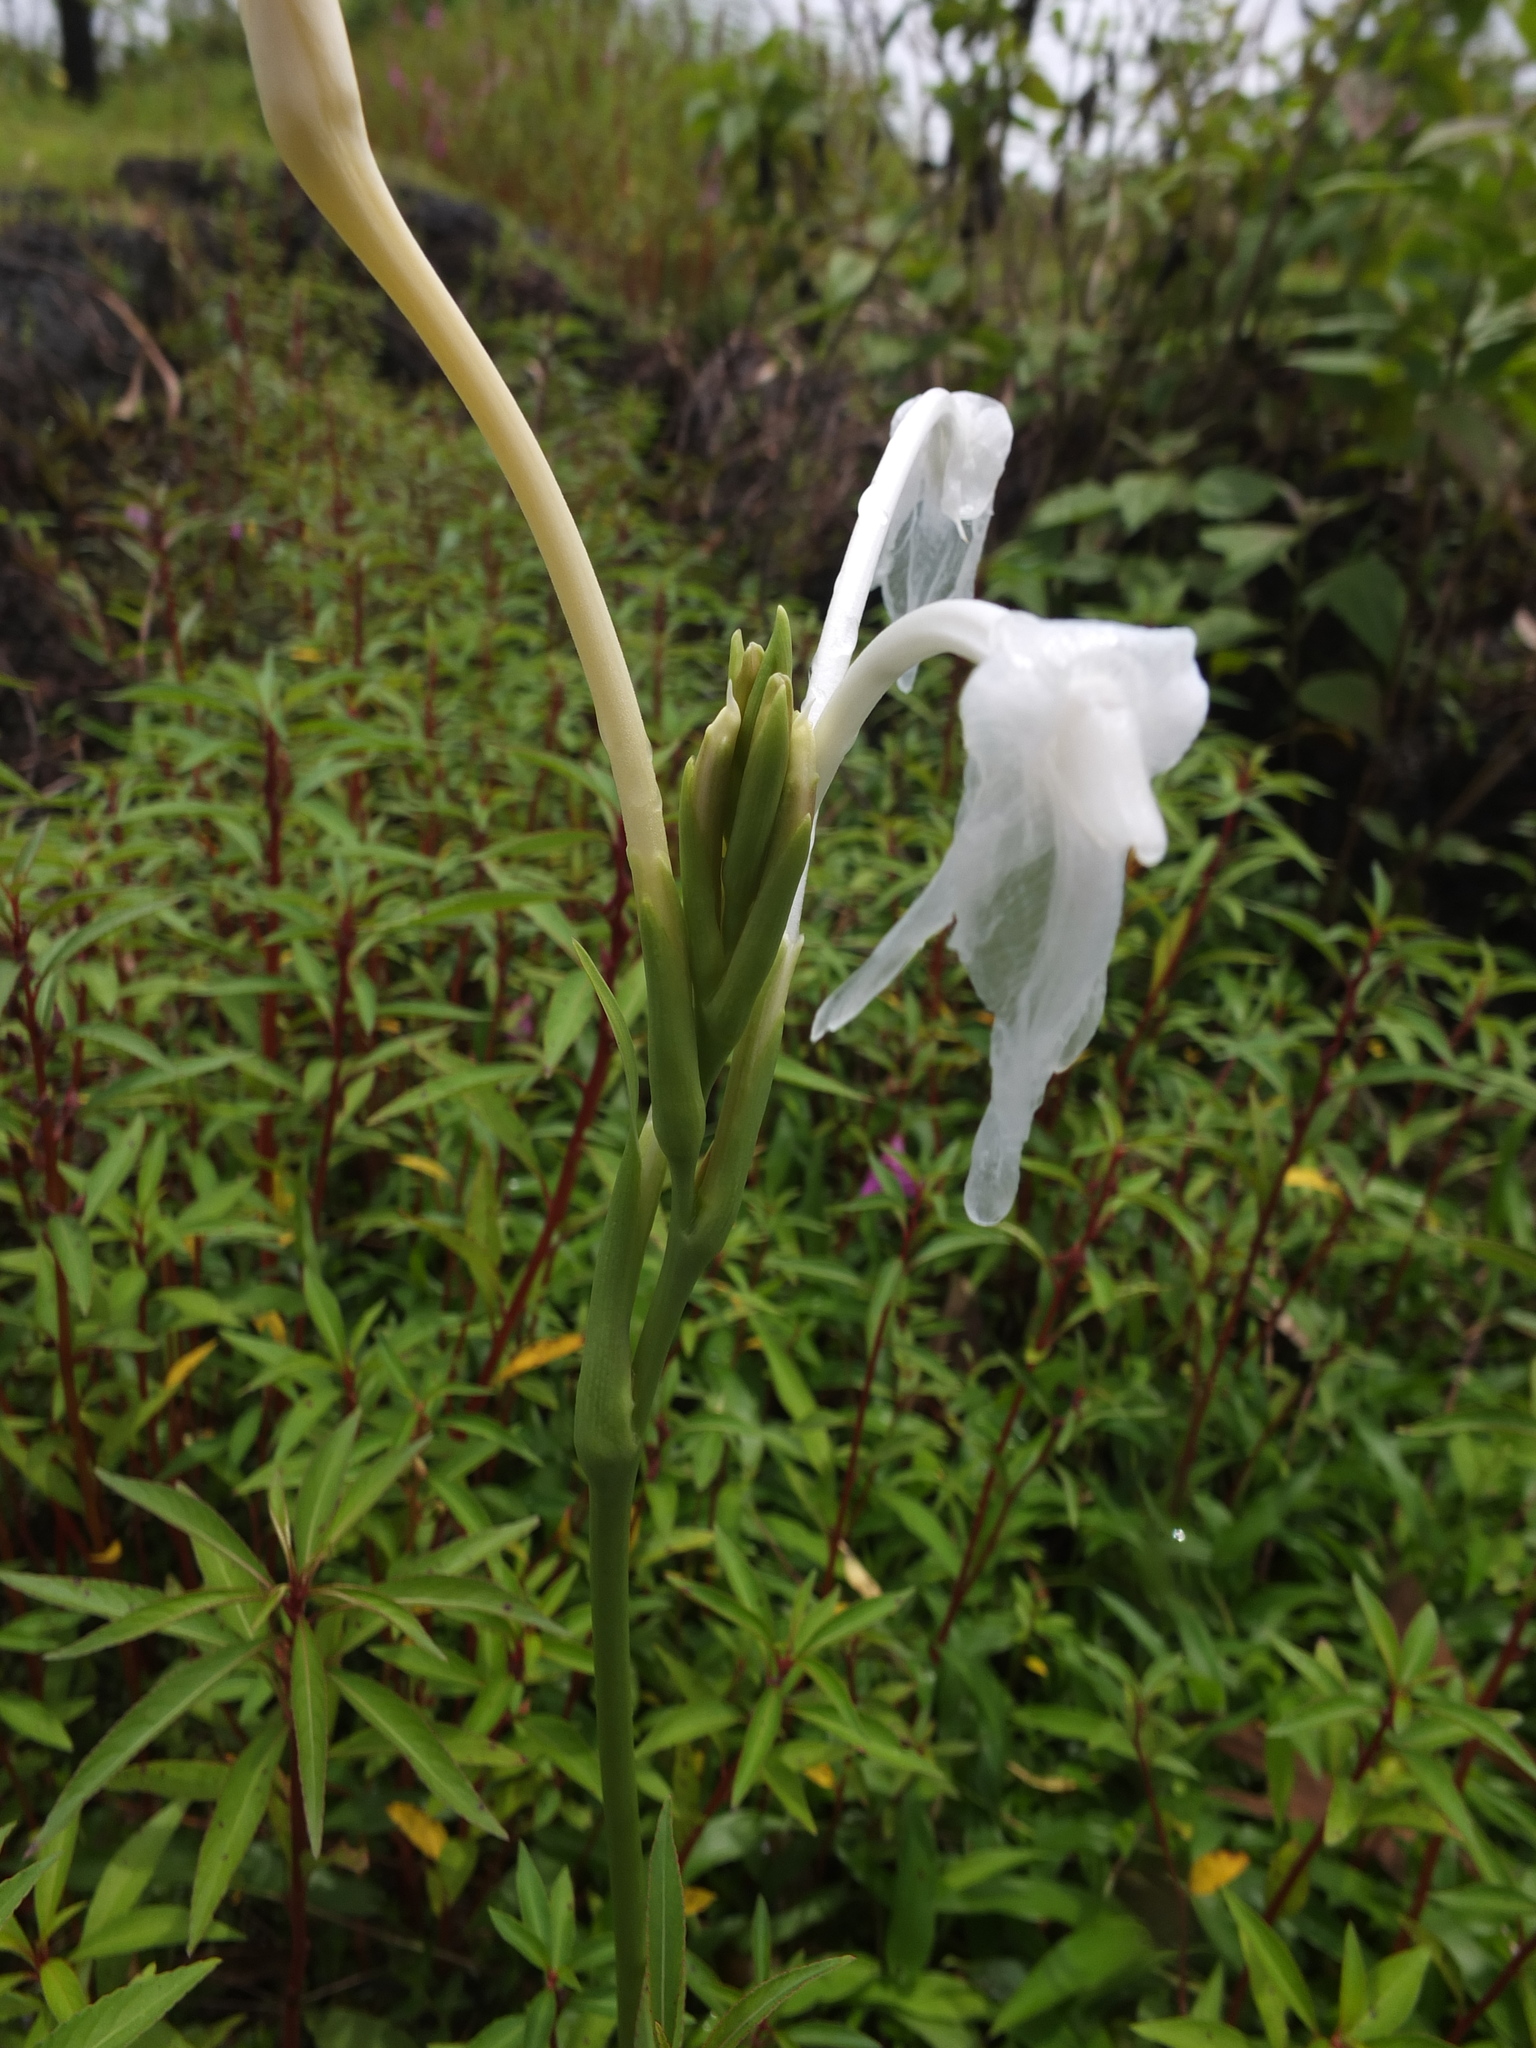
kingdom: Plantae
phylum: Tracheophyta
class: Liliopsida
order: Zingiberales
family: Zingiberaceae
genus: Curcuma
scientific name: Curcuma scaposa
